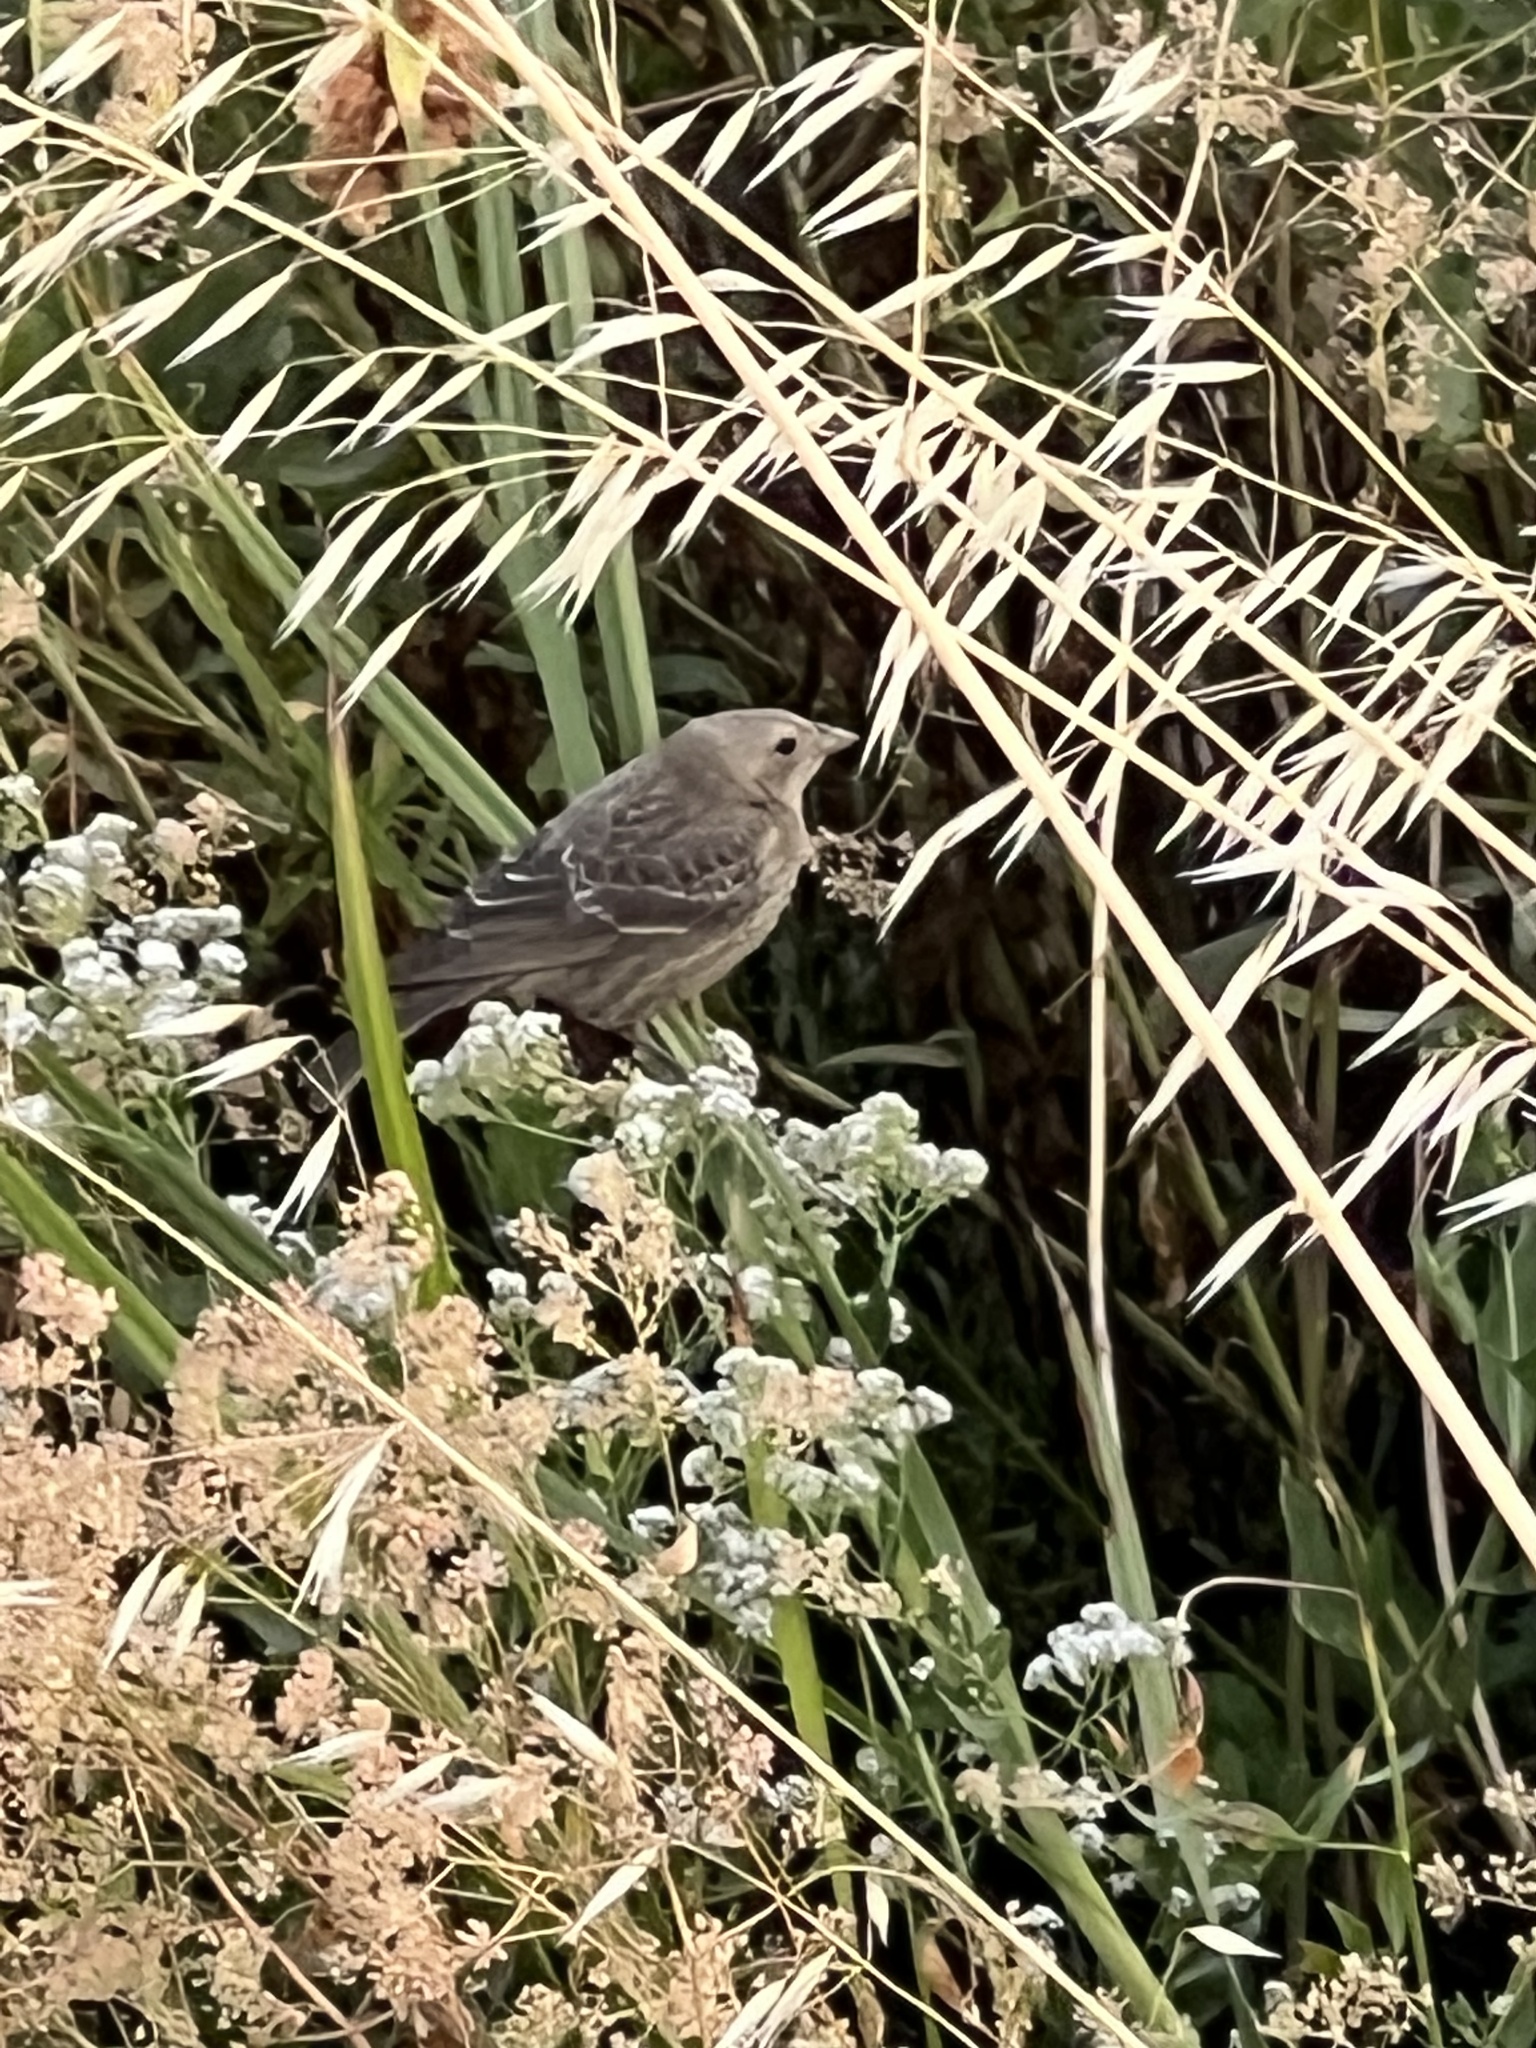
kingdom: Animalia
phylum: Chordata
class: Aves
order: Passeriformes
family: Icteridae
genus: Molothrus
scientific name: Molothrus ater
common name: Brown-headed cowbird
